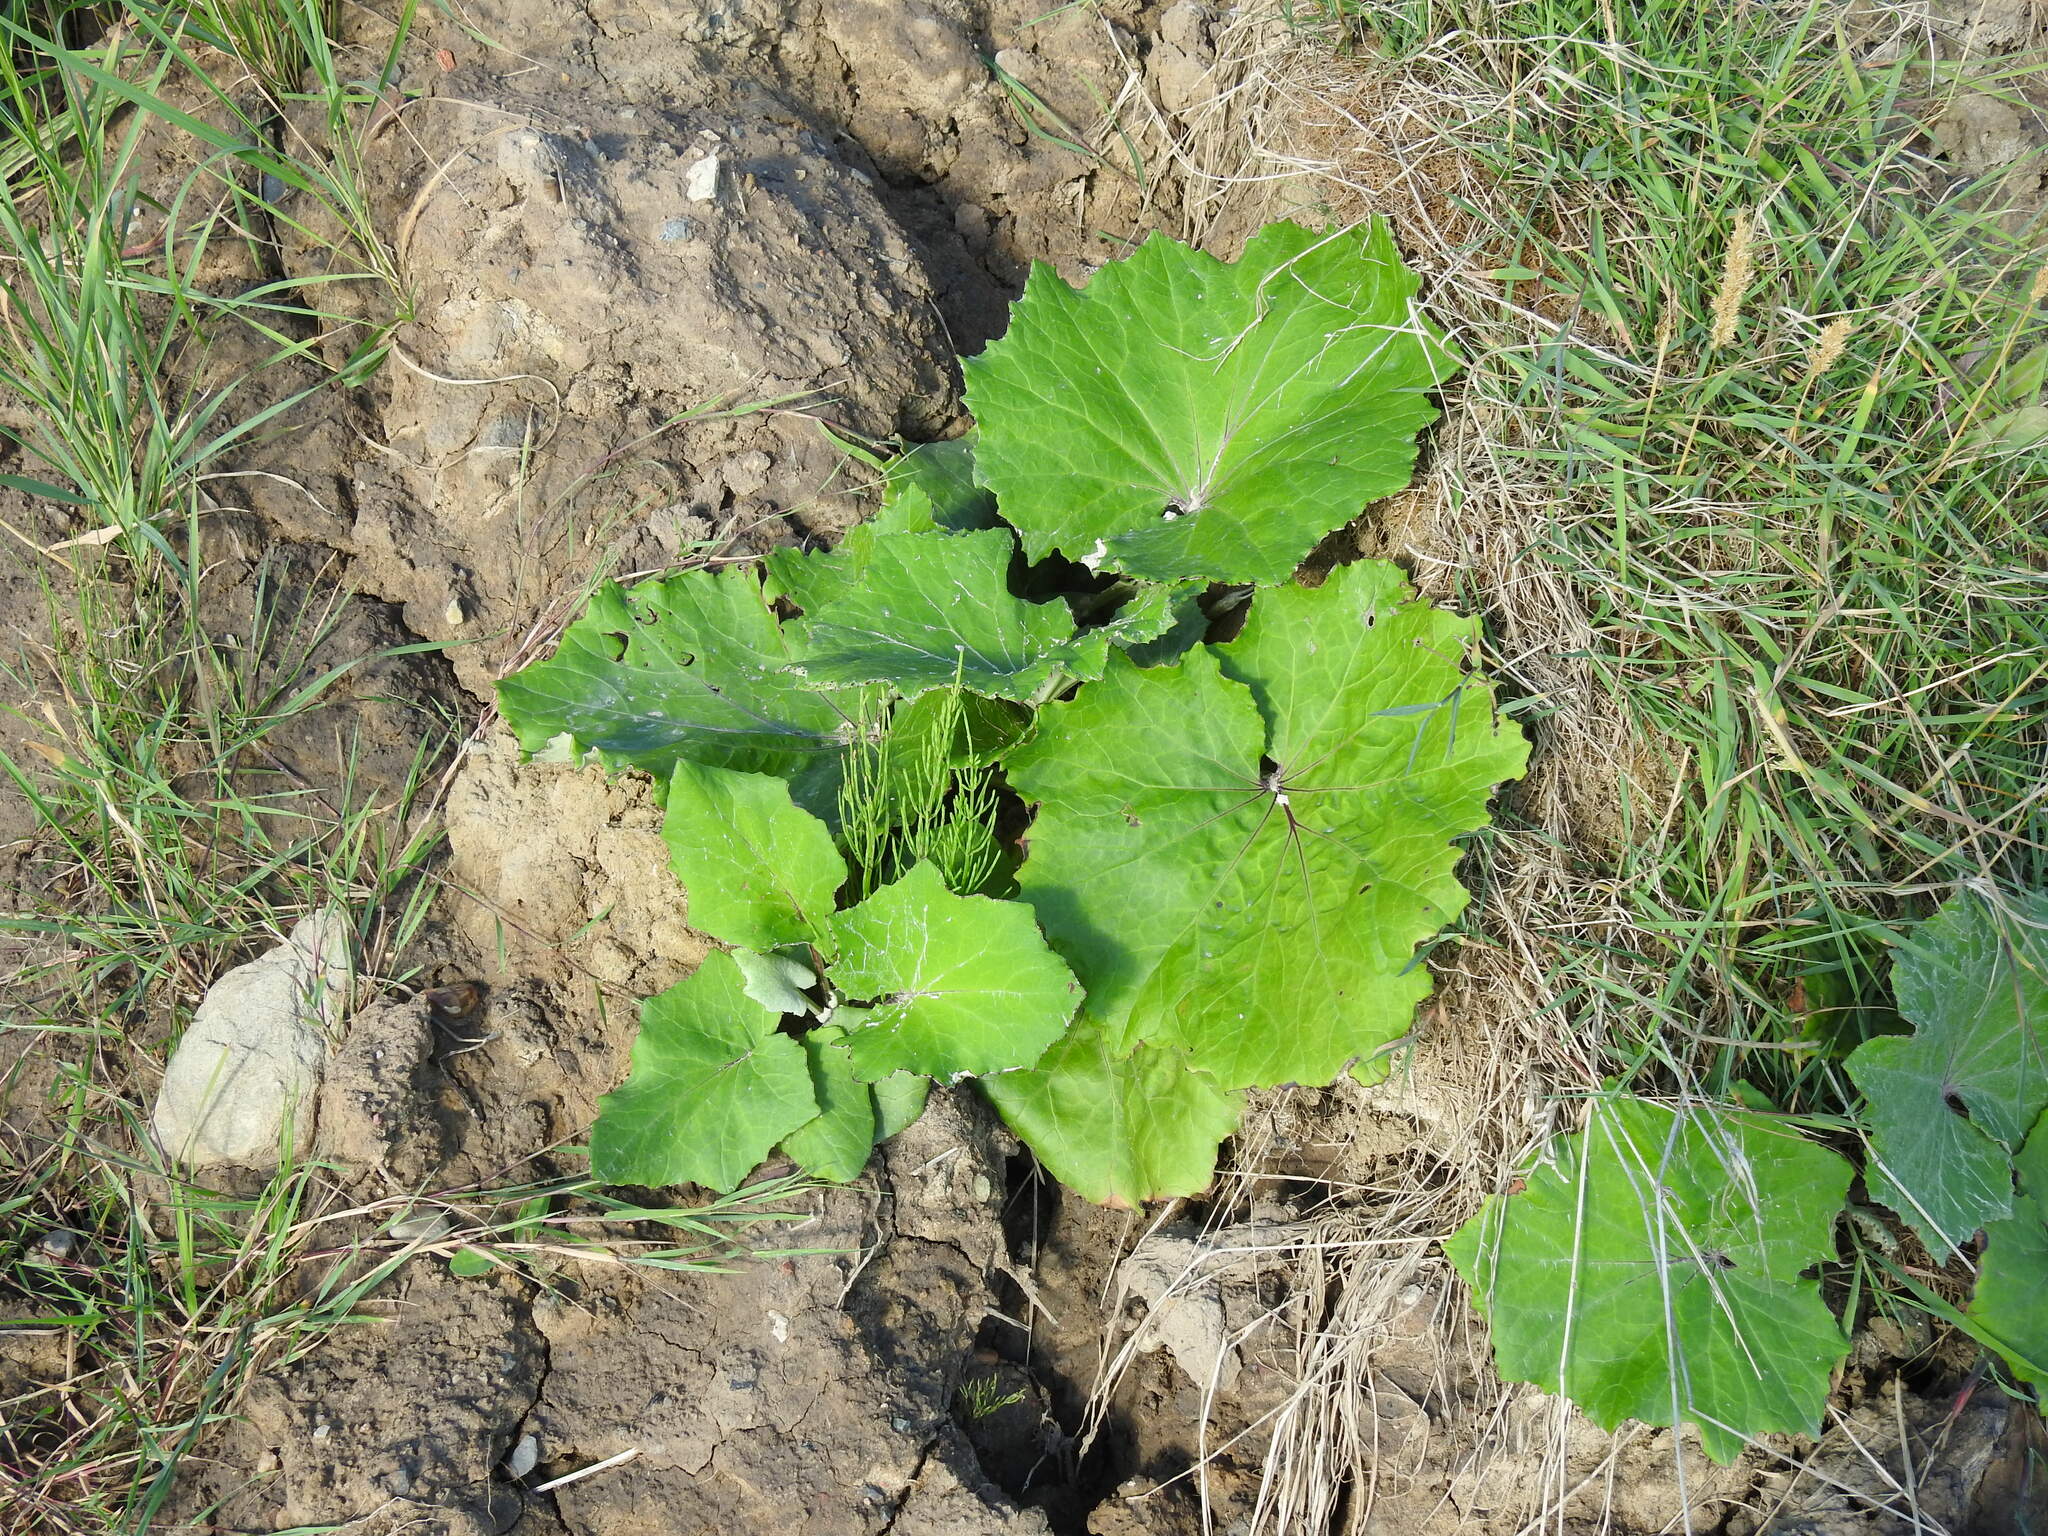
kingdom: Plantae
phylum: Tracheophyta
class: Magnoliopsida
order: Asterales
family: Asteraceae
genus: Tussilago
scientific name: Tussilago farfara
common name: Coltsfoot
